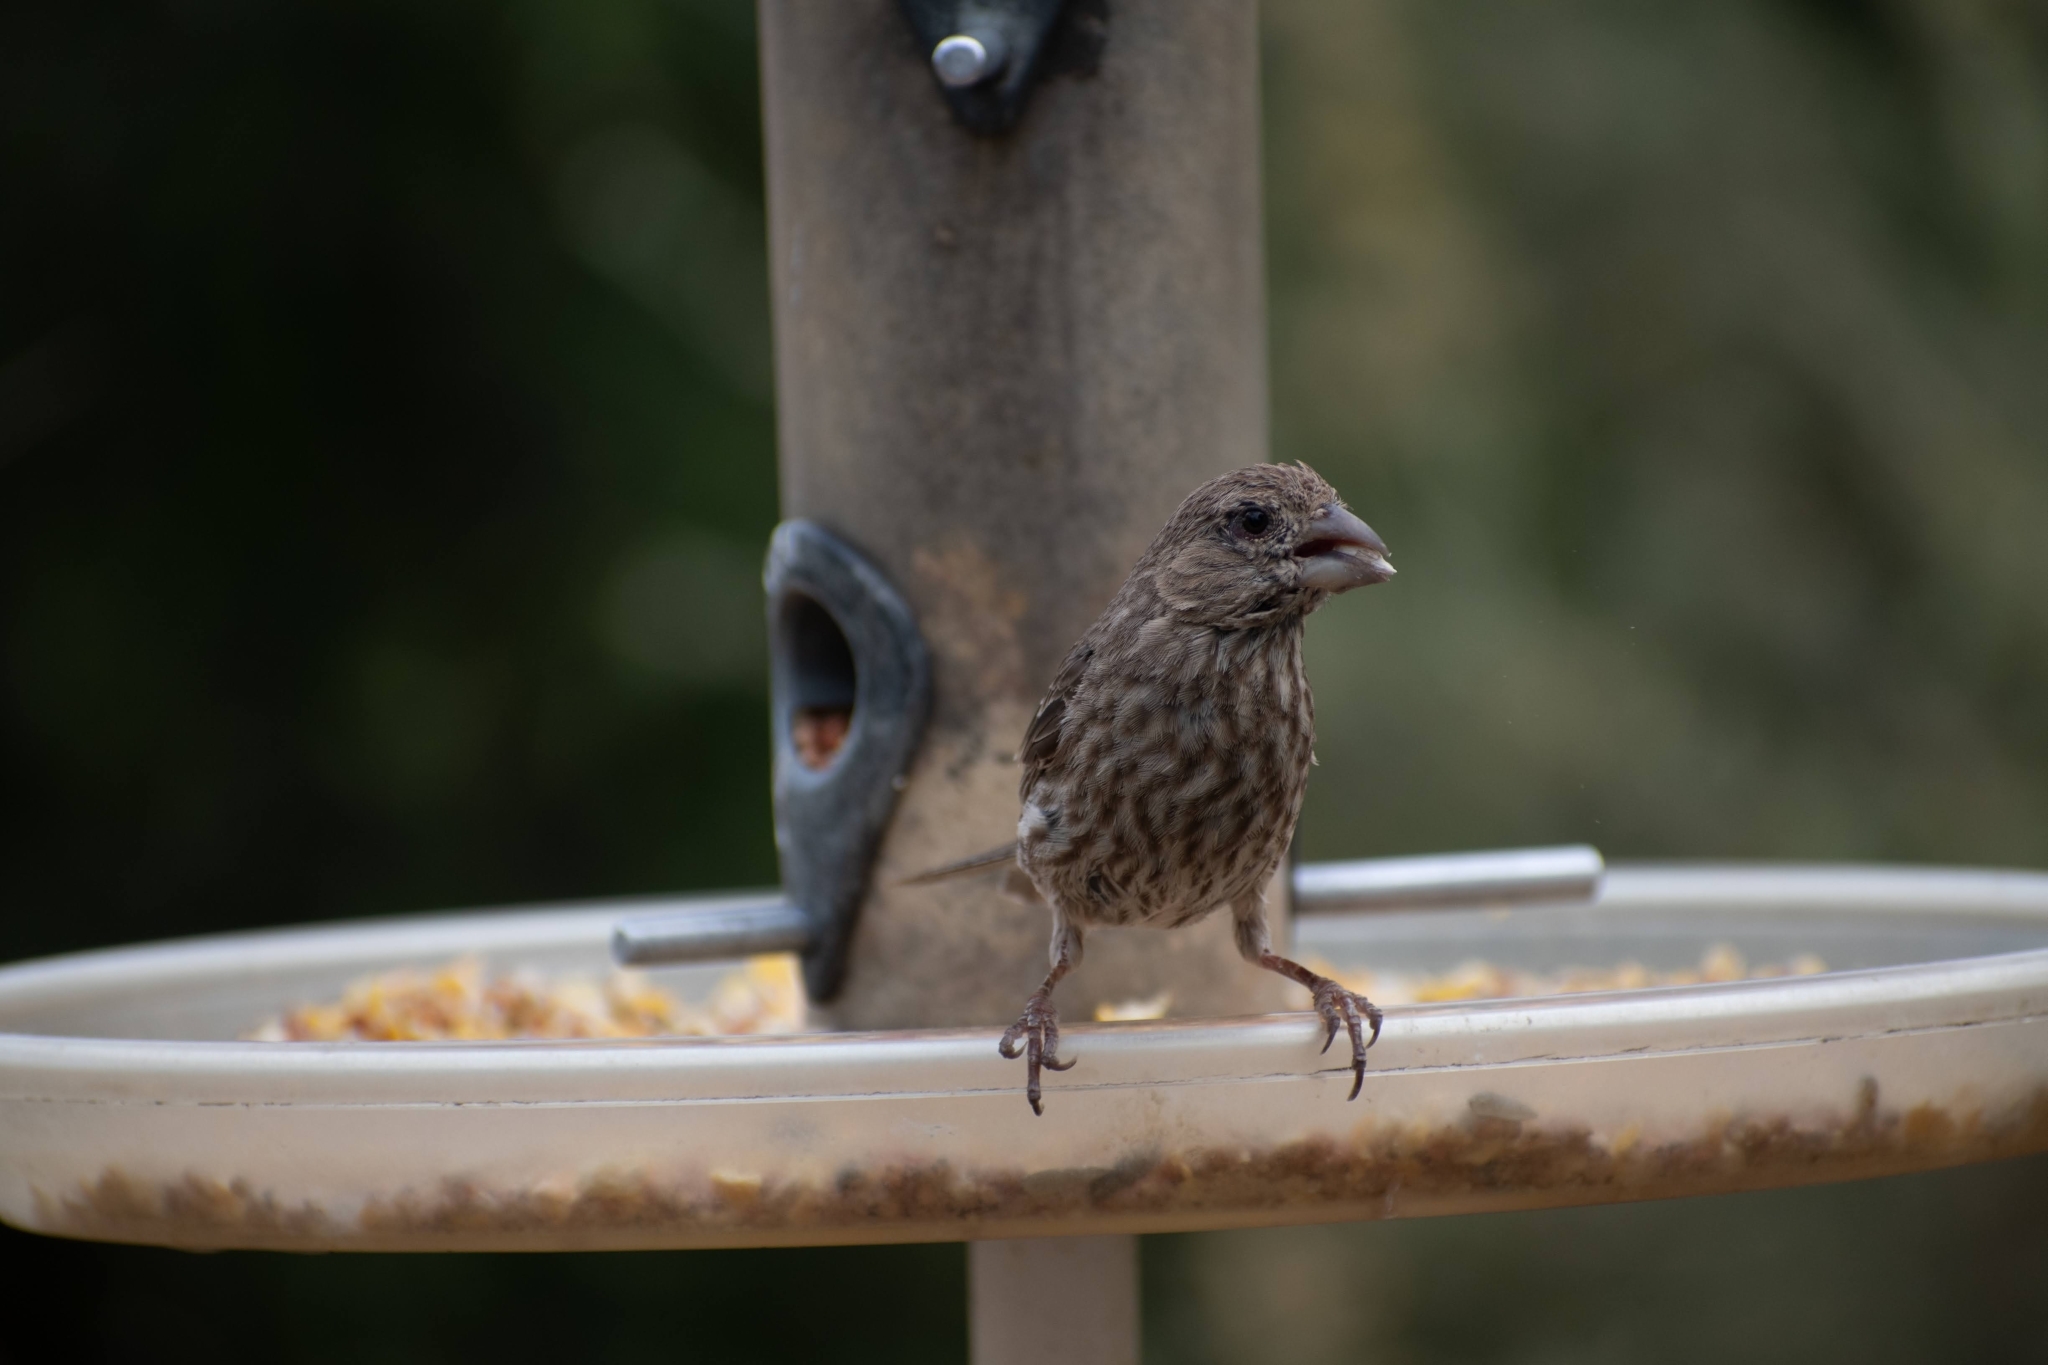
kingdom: Animalia
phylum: Chordata
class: Aves
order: Passeriformes
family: Fringillidae
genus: Haemorhous
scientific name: Haemorhous mexicanus
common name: House finch
